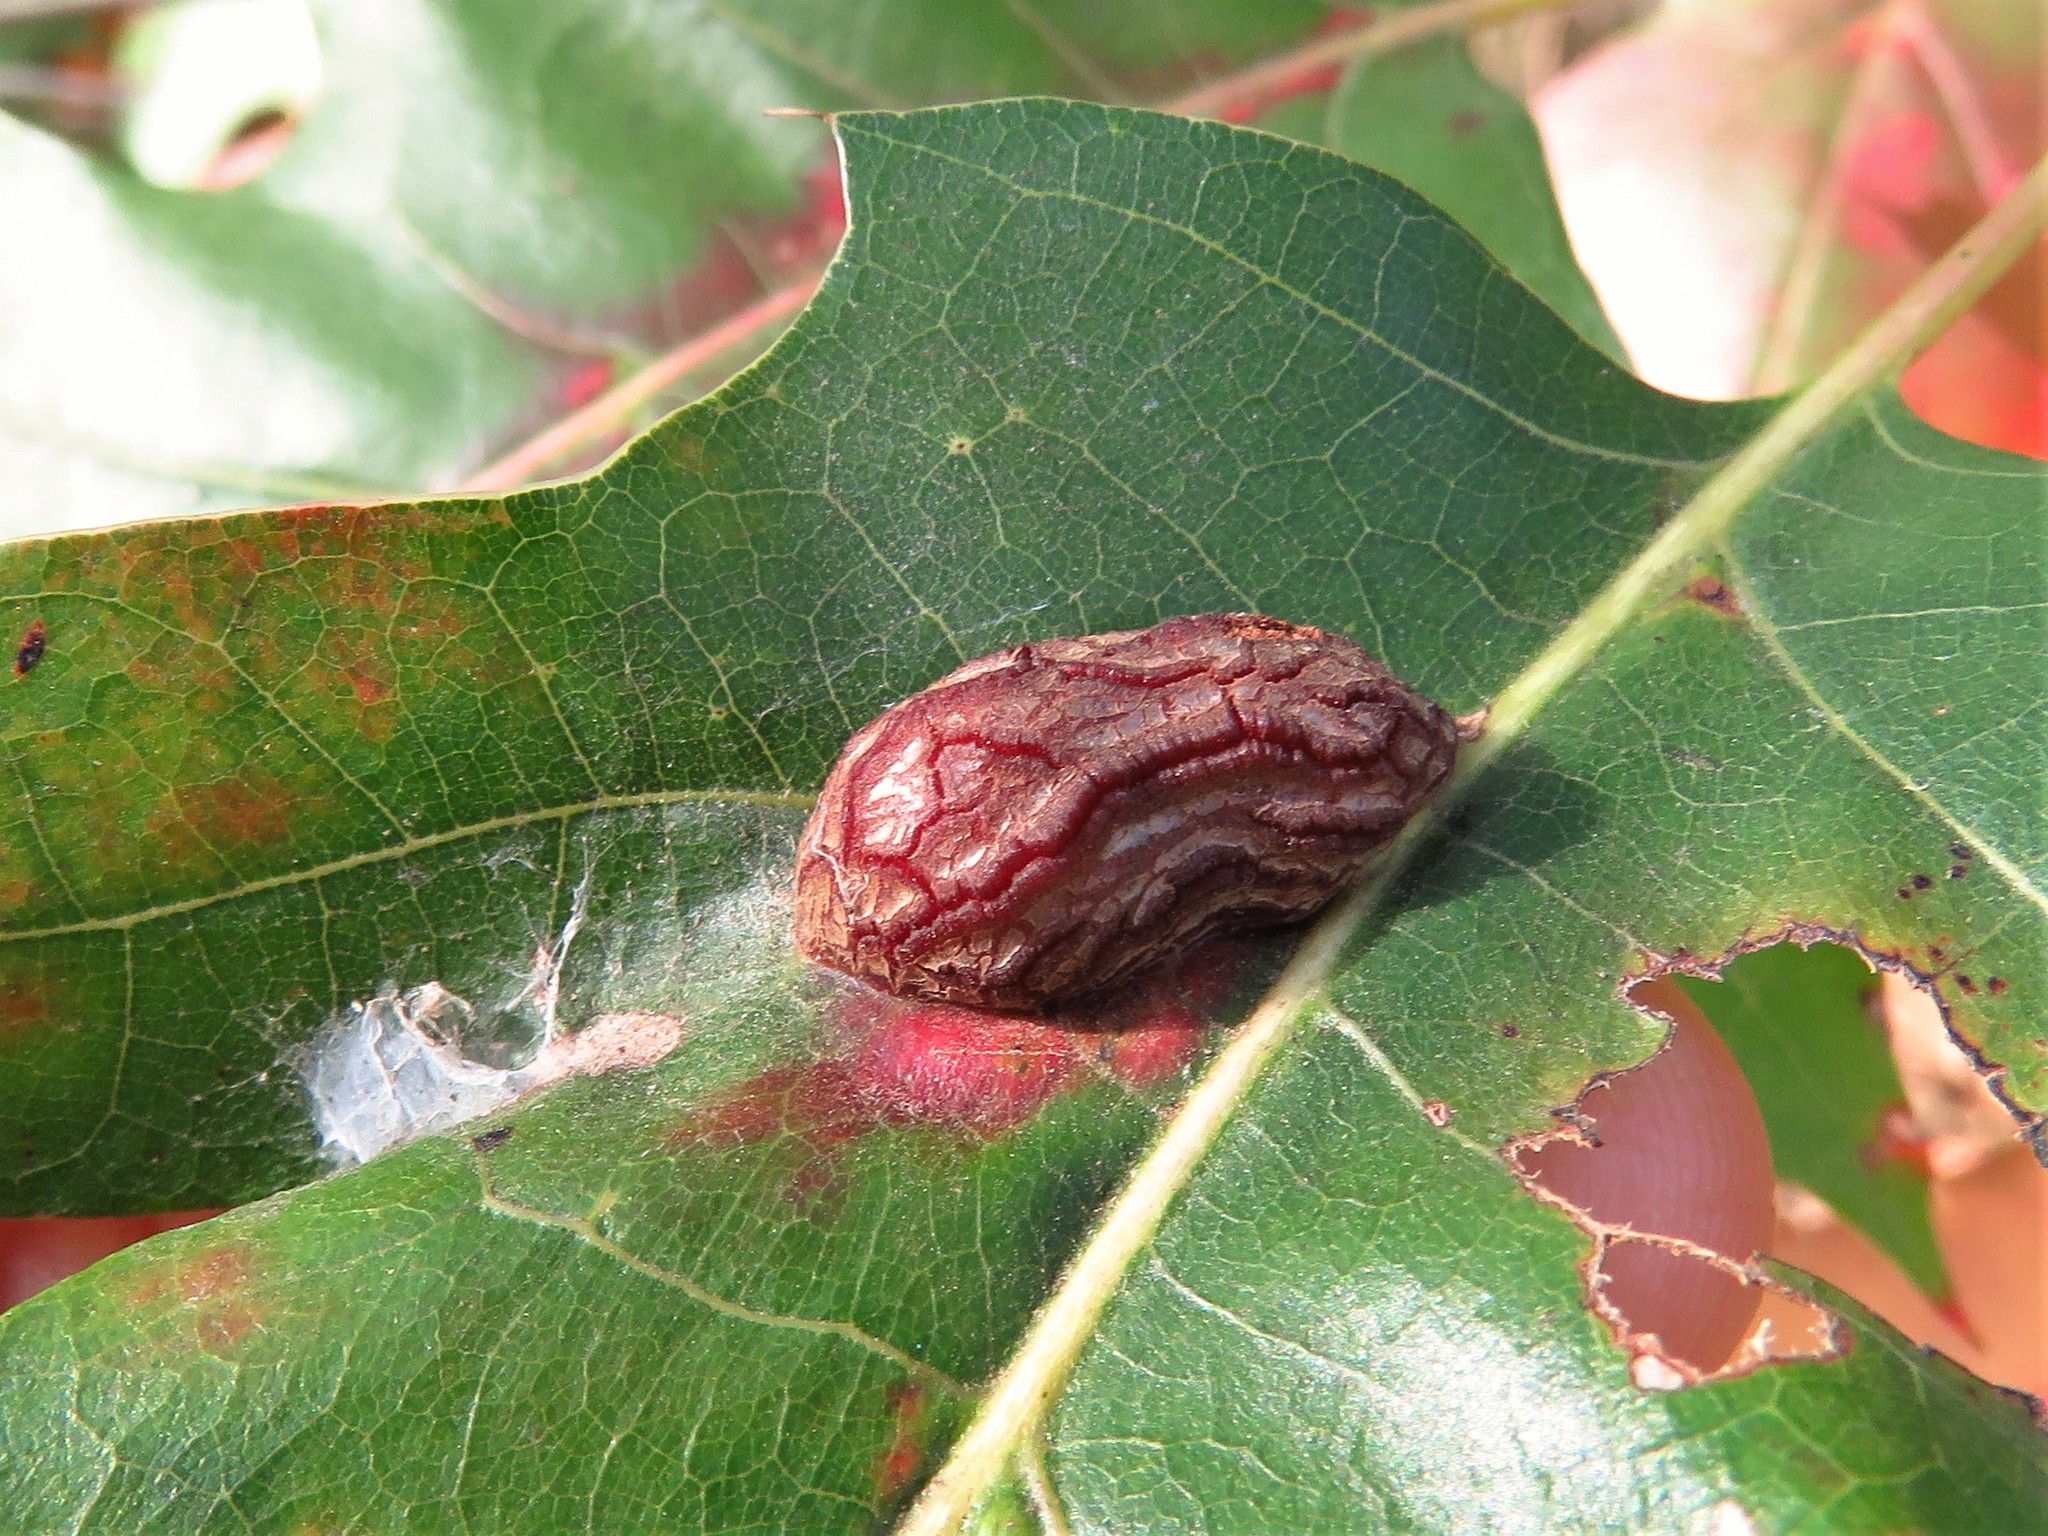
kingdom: Animalia
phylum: Arthropoda
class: Insecta
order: Diptera
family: Cecidomyiidae
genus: Polystepha
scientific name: Polystepha pilulae
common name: Oak leaf gall midge
